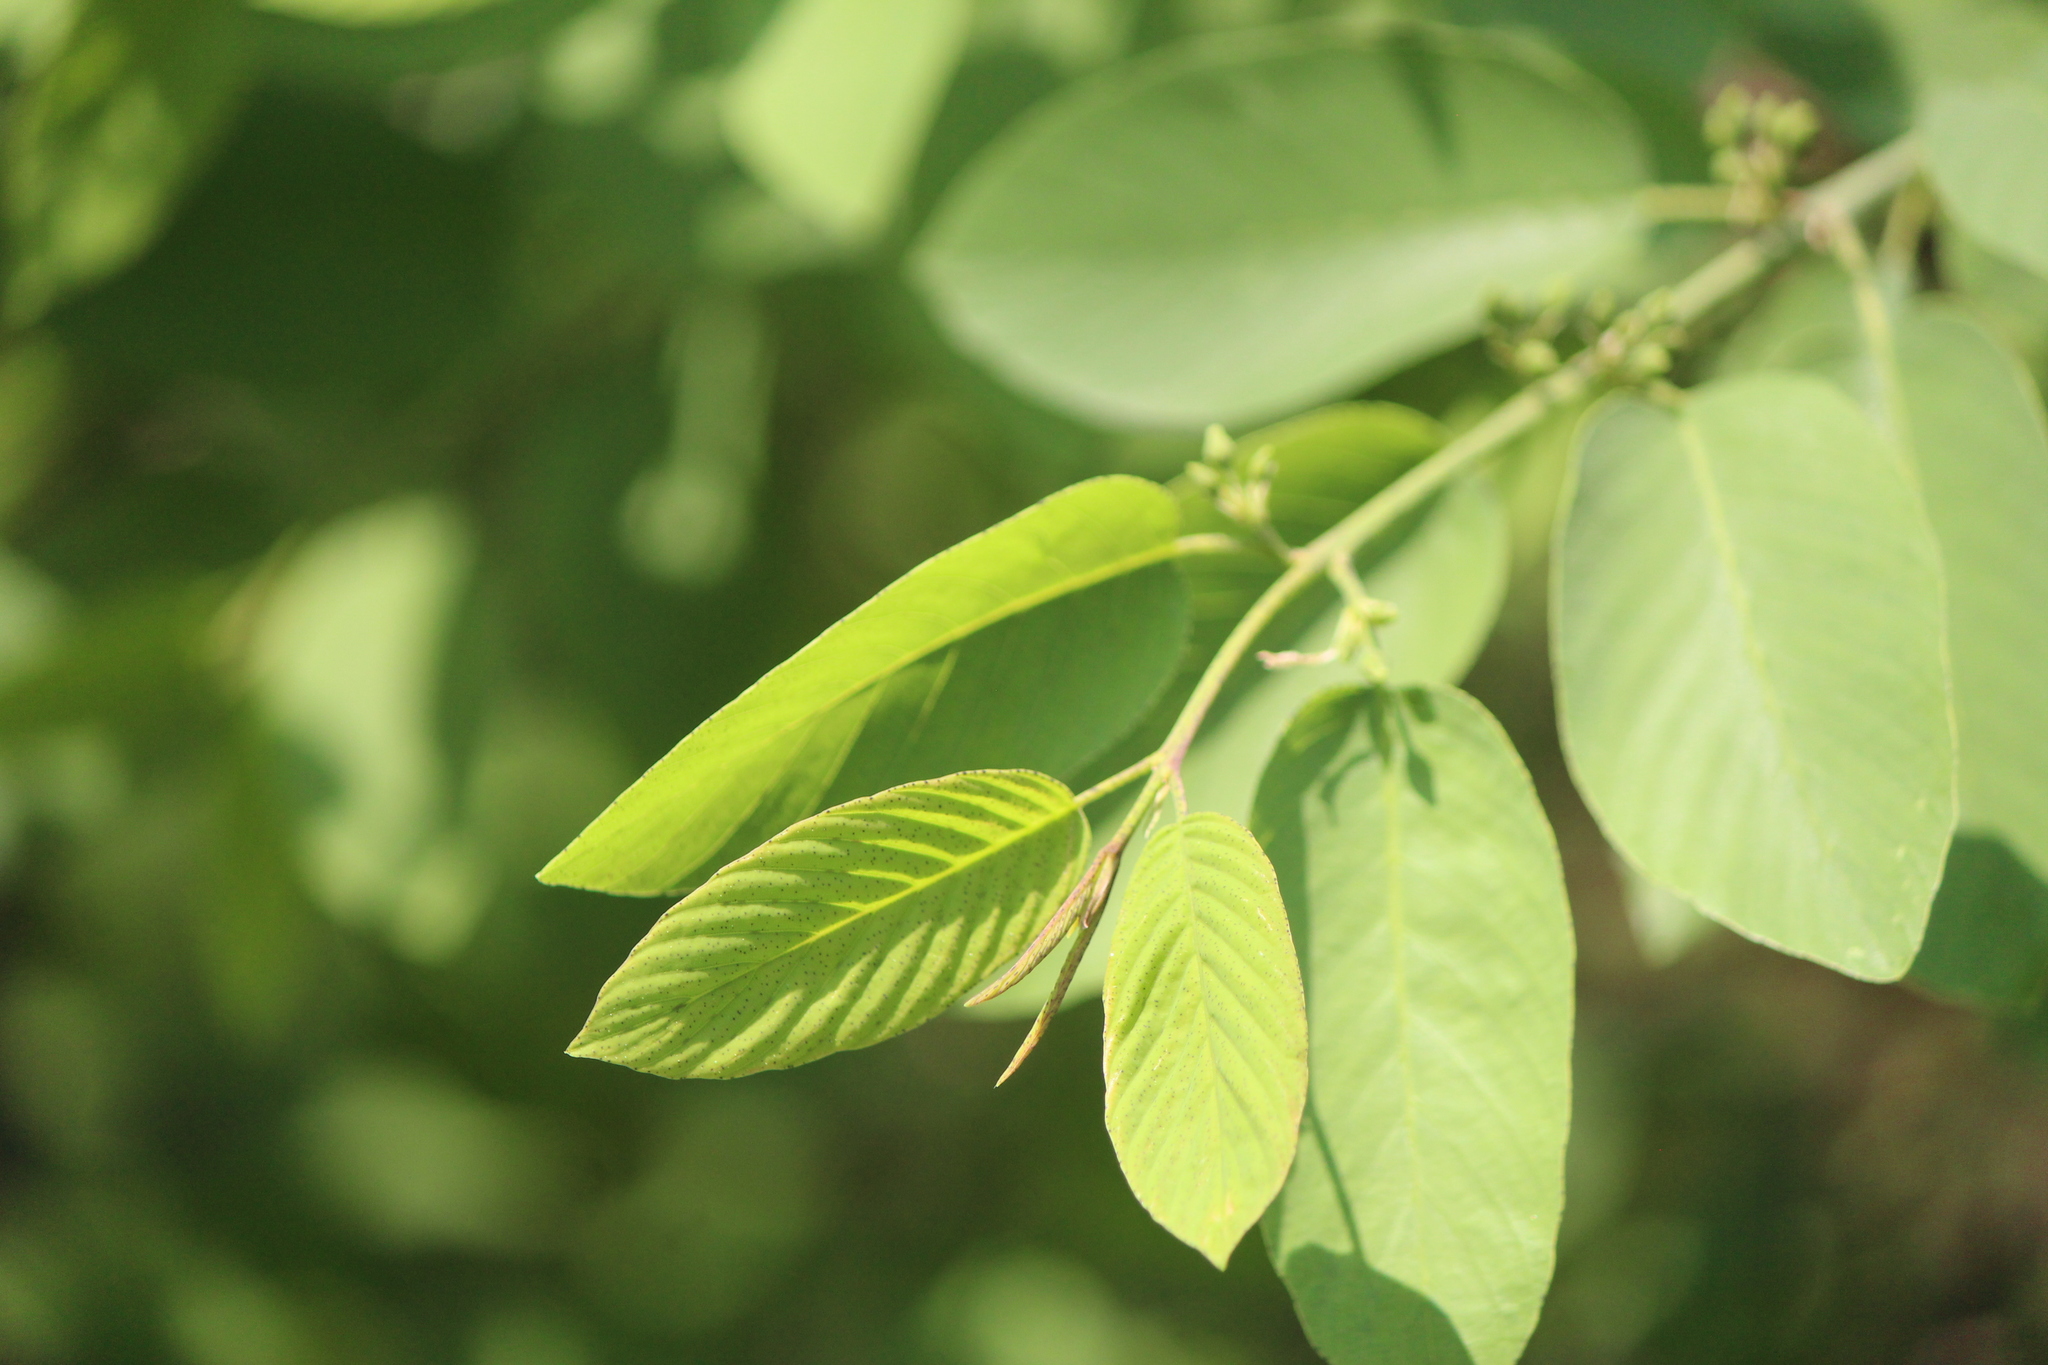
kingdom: Plantae
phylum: Tracheophyta
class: Magnoliopsida
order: Rosales
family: Rhamnaceae
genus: Karwinskia
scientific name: Karwinskia humboldtiana
